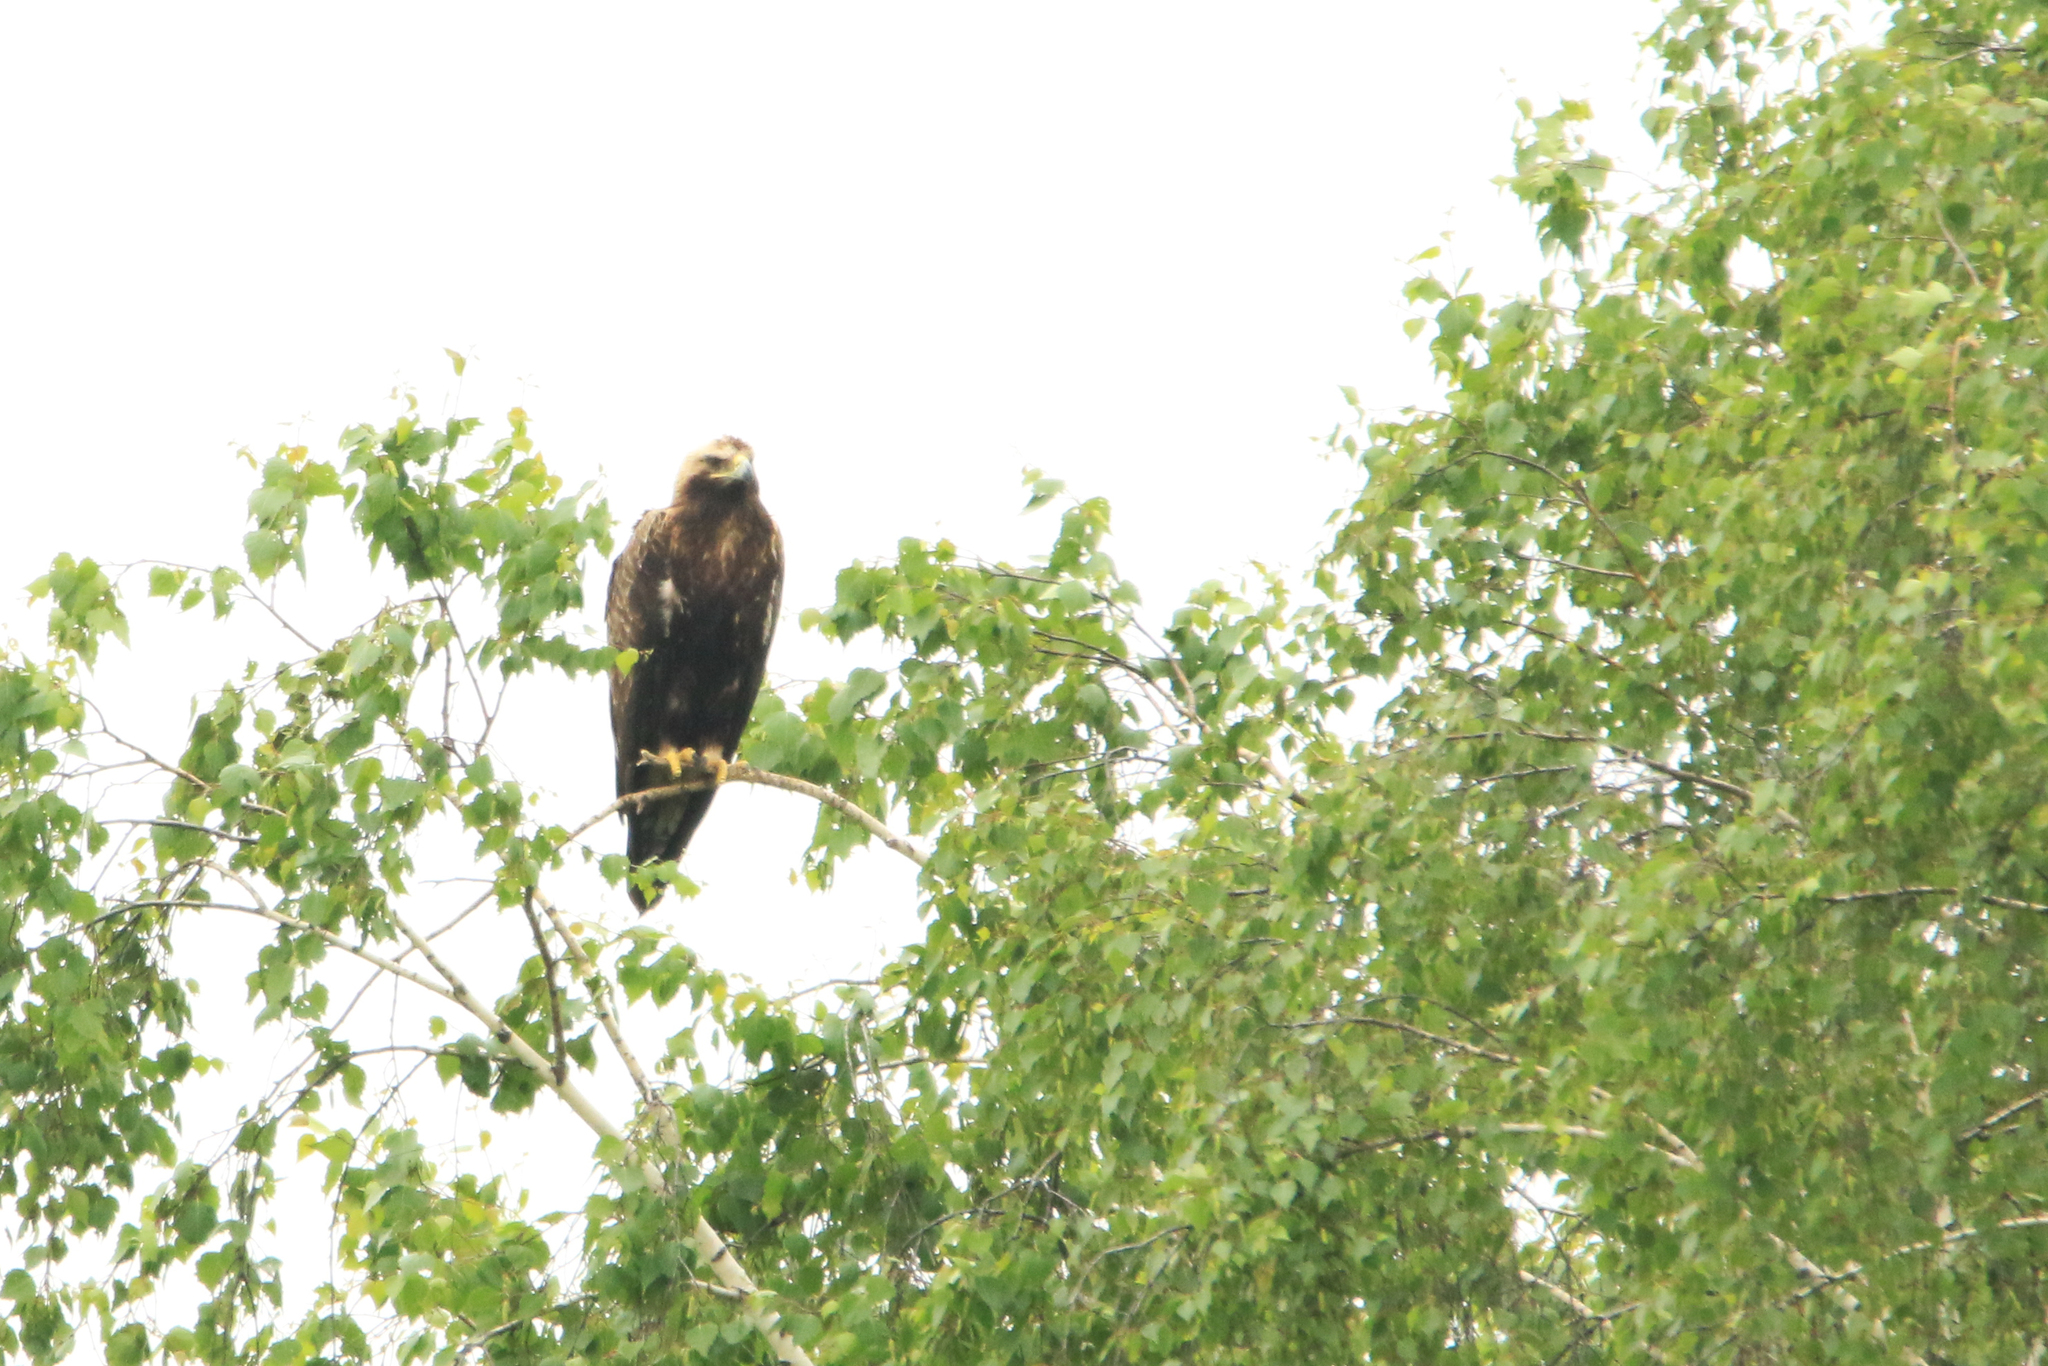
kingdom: Animalia
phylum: Chordata
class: Aves
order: Accipitriformes
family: Accipitridae
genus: Aquila
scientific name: Aquila heliaca
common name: Eastern imperial eagle
